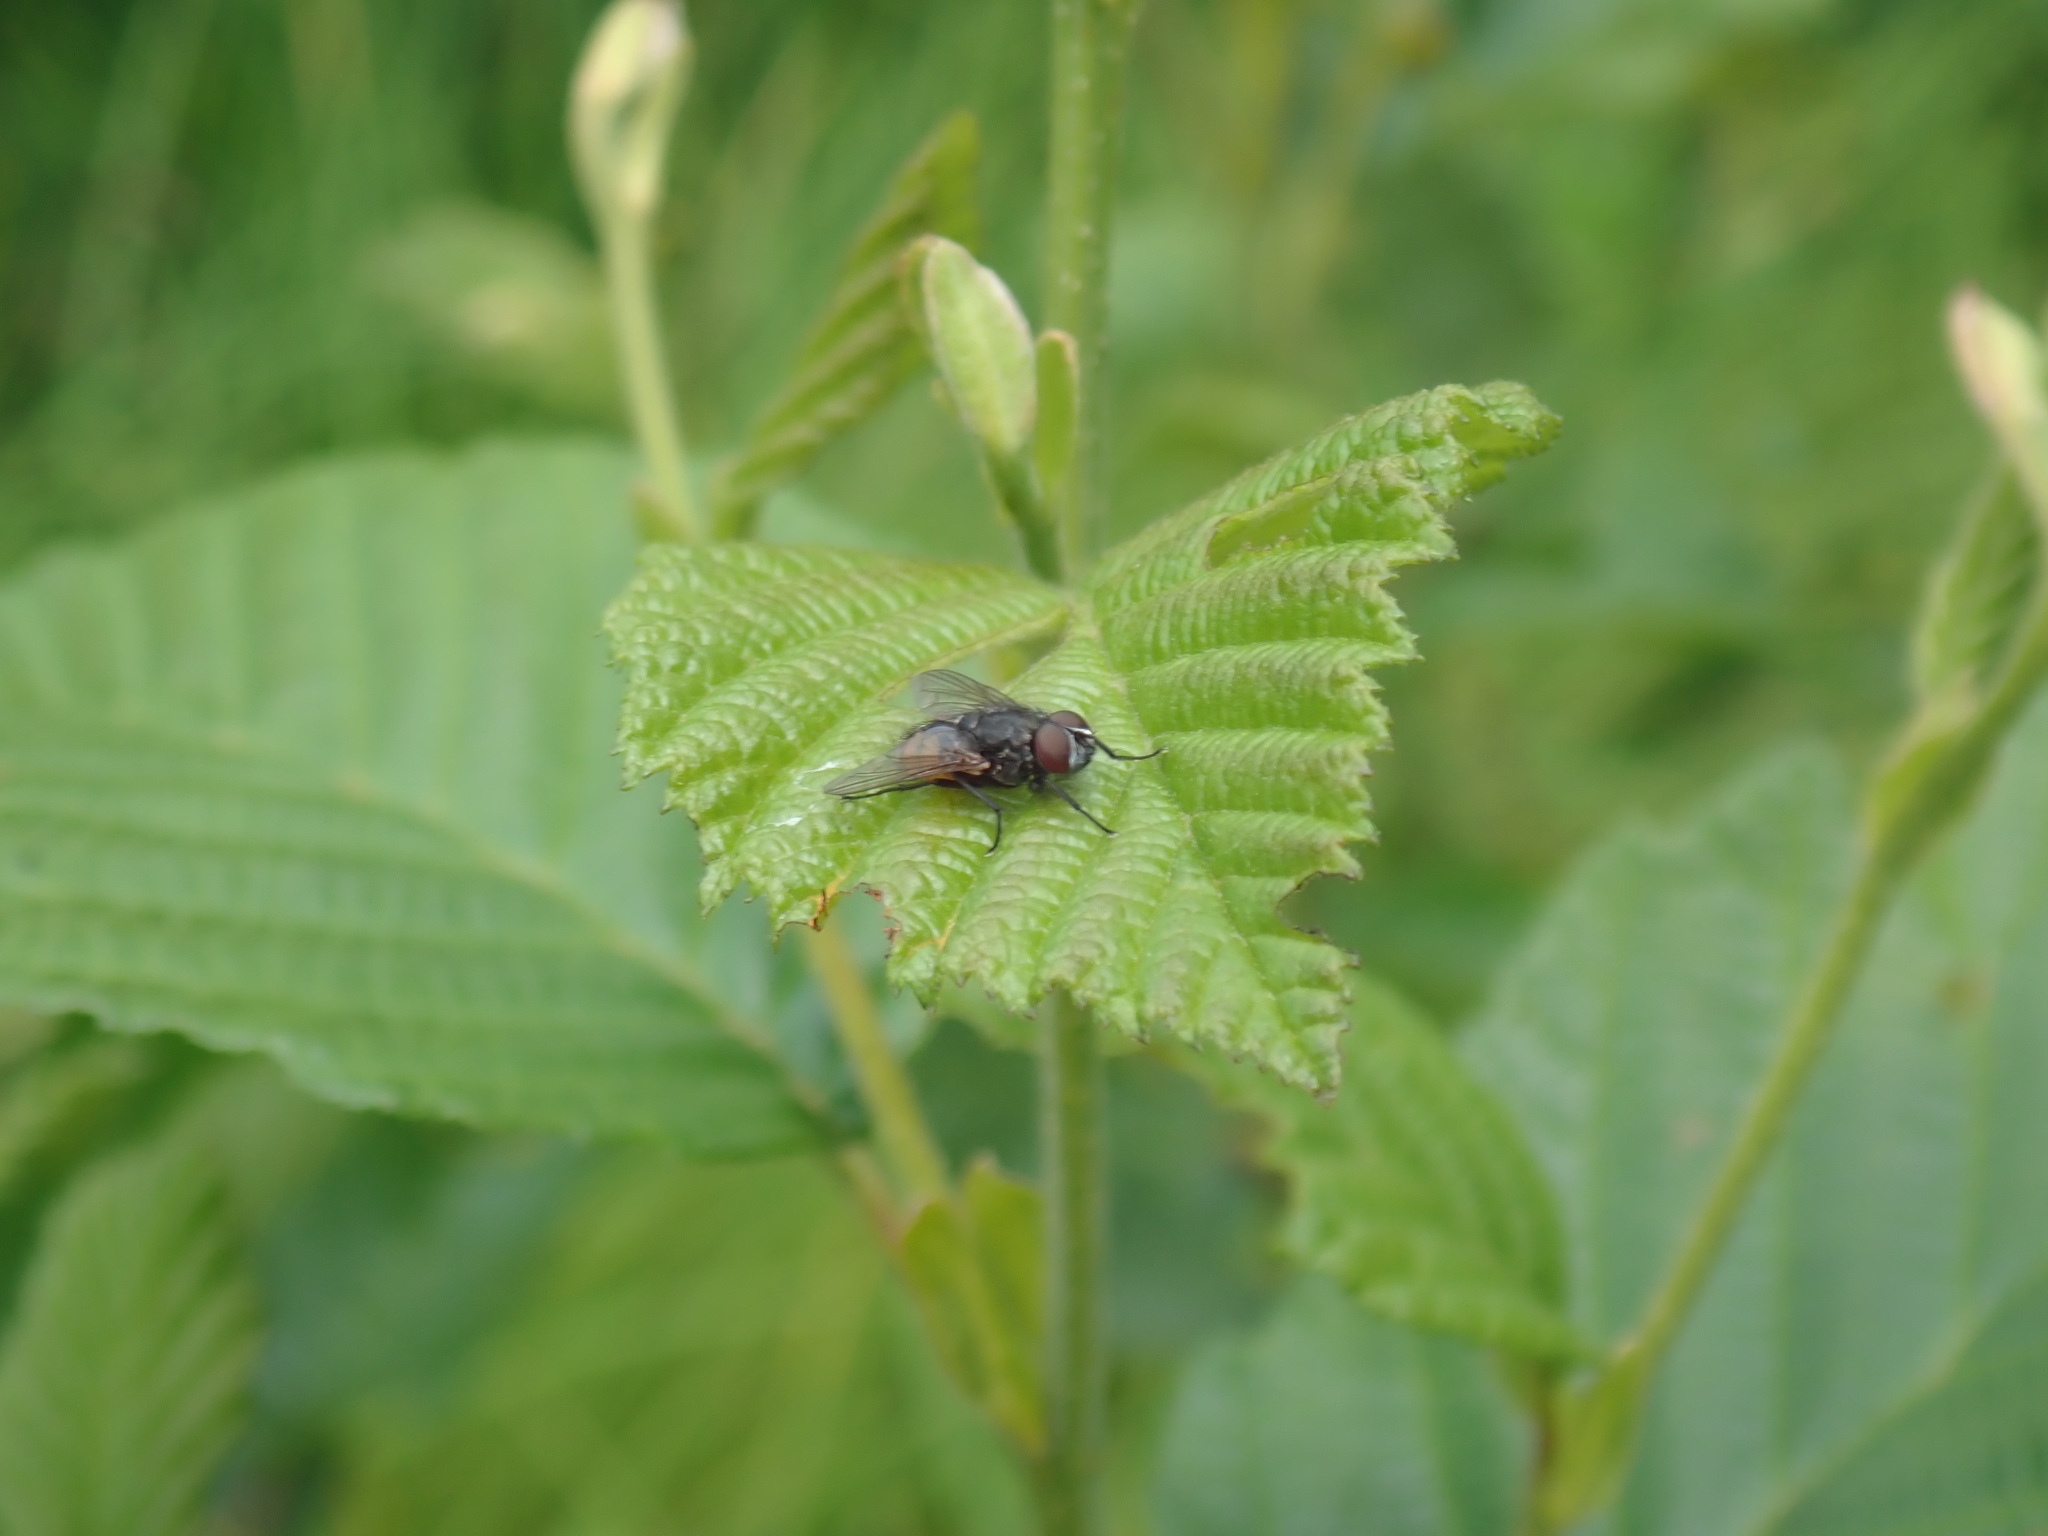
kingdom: Animalia
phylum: Arthropoda
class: Insecta
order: Diptera
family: Muscidae
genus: Musca
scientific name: Musca autumnalis
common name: Face fly
